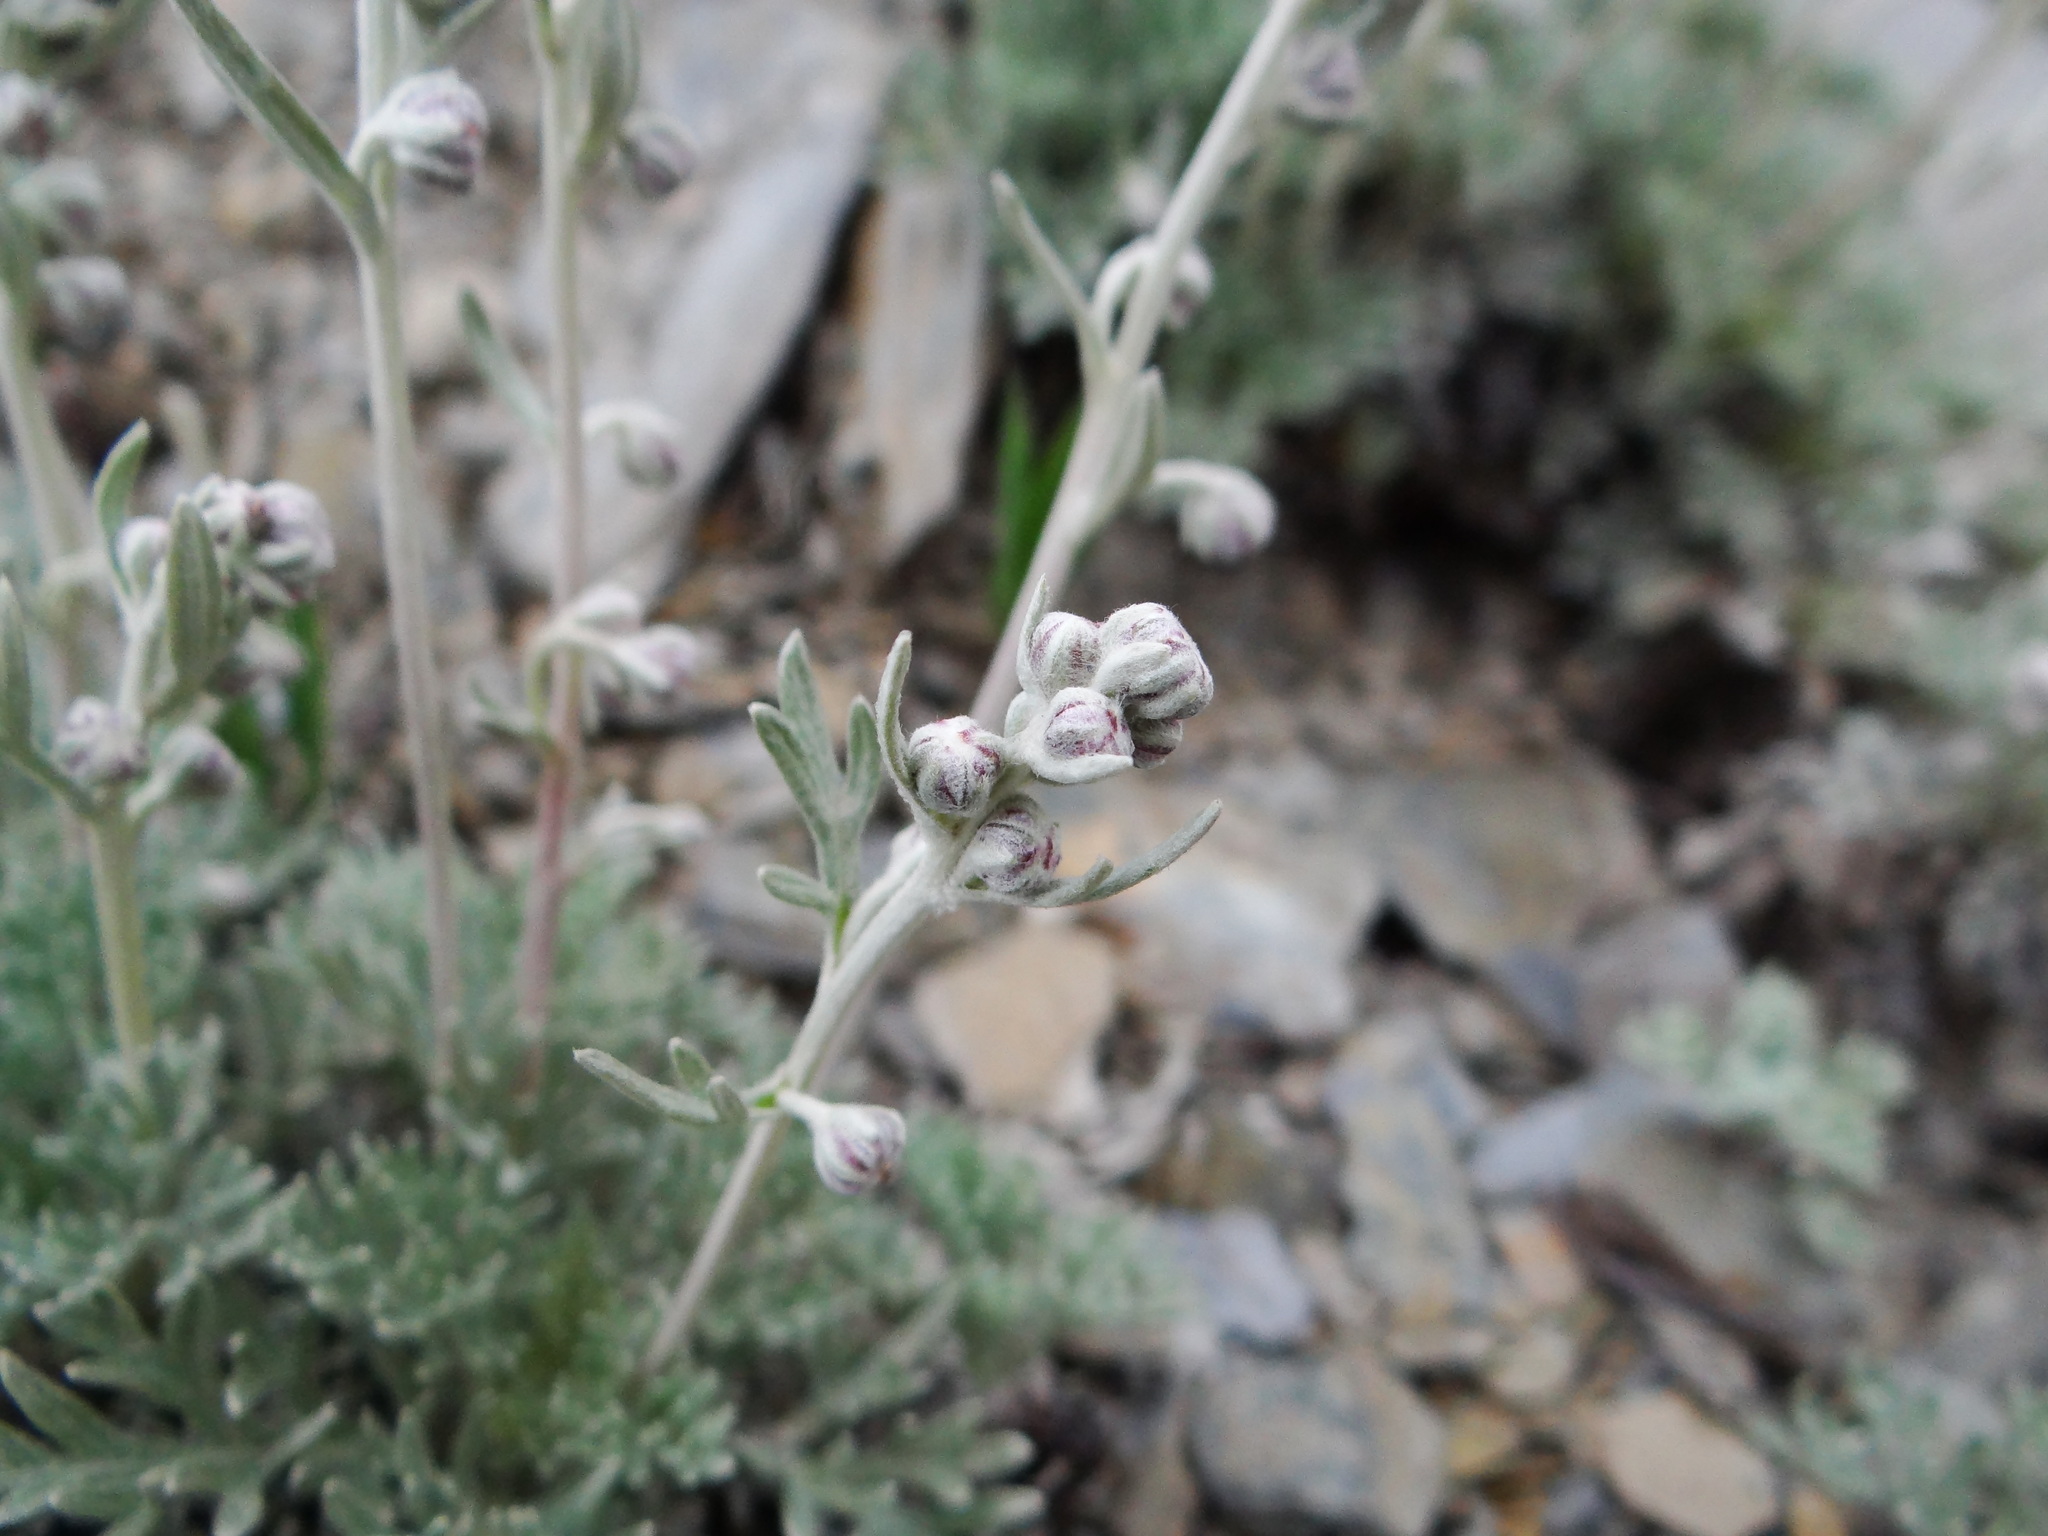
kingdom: Plantae
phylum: Tracheophyta
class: Magnoliopsida
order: Asterales
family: Asteraceae
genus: Artemisia
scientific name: Artemisia kawakamii
